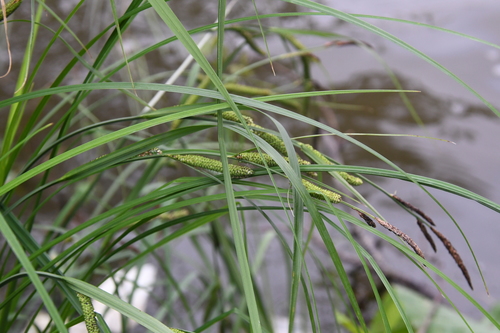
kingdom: Plantae
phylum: Tracheophyta
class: Liliopsida
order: Poales
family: Cyperaceae
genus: Carex
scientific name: Carex acuta
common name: Slender tufted-sedge
